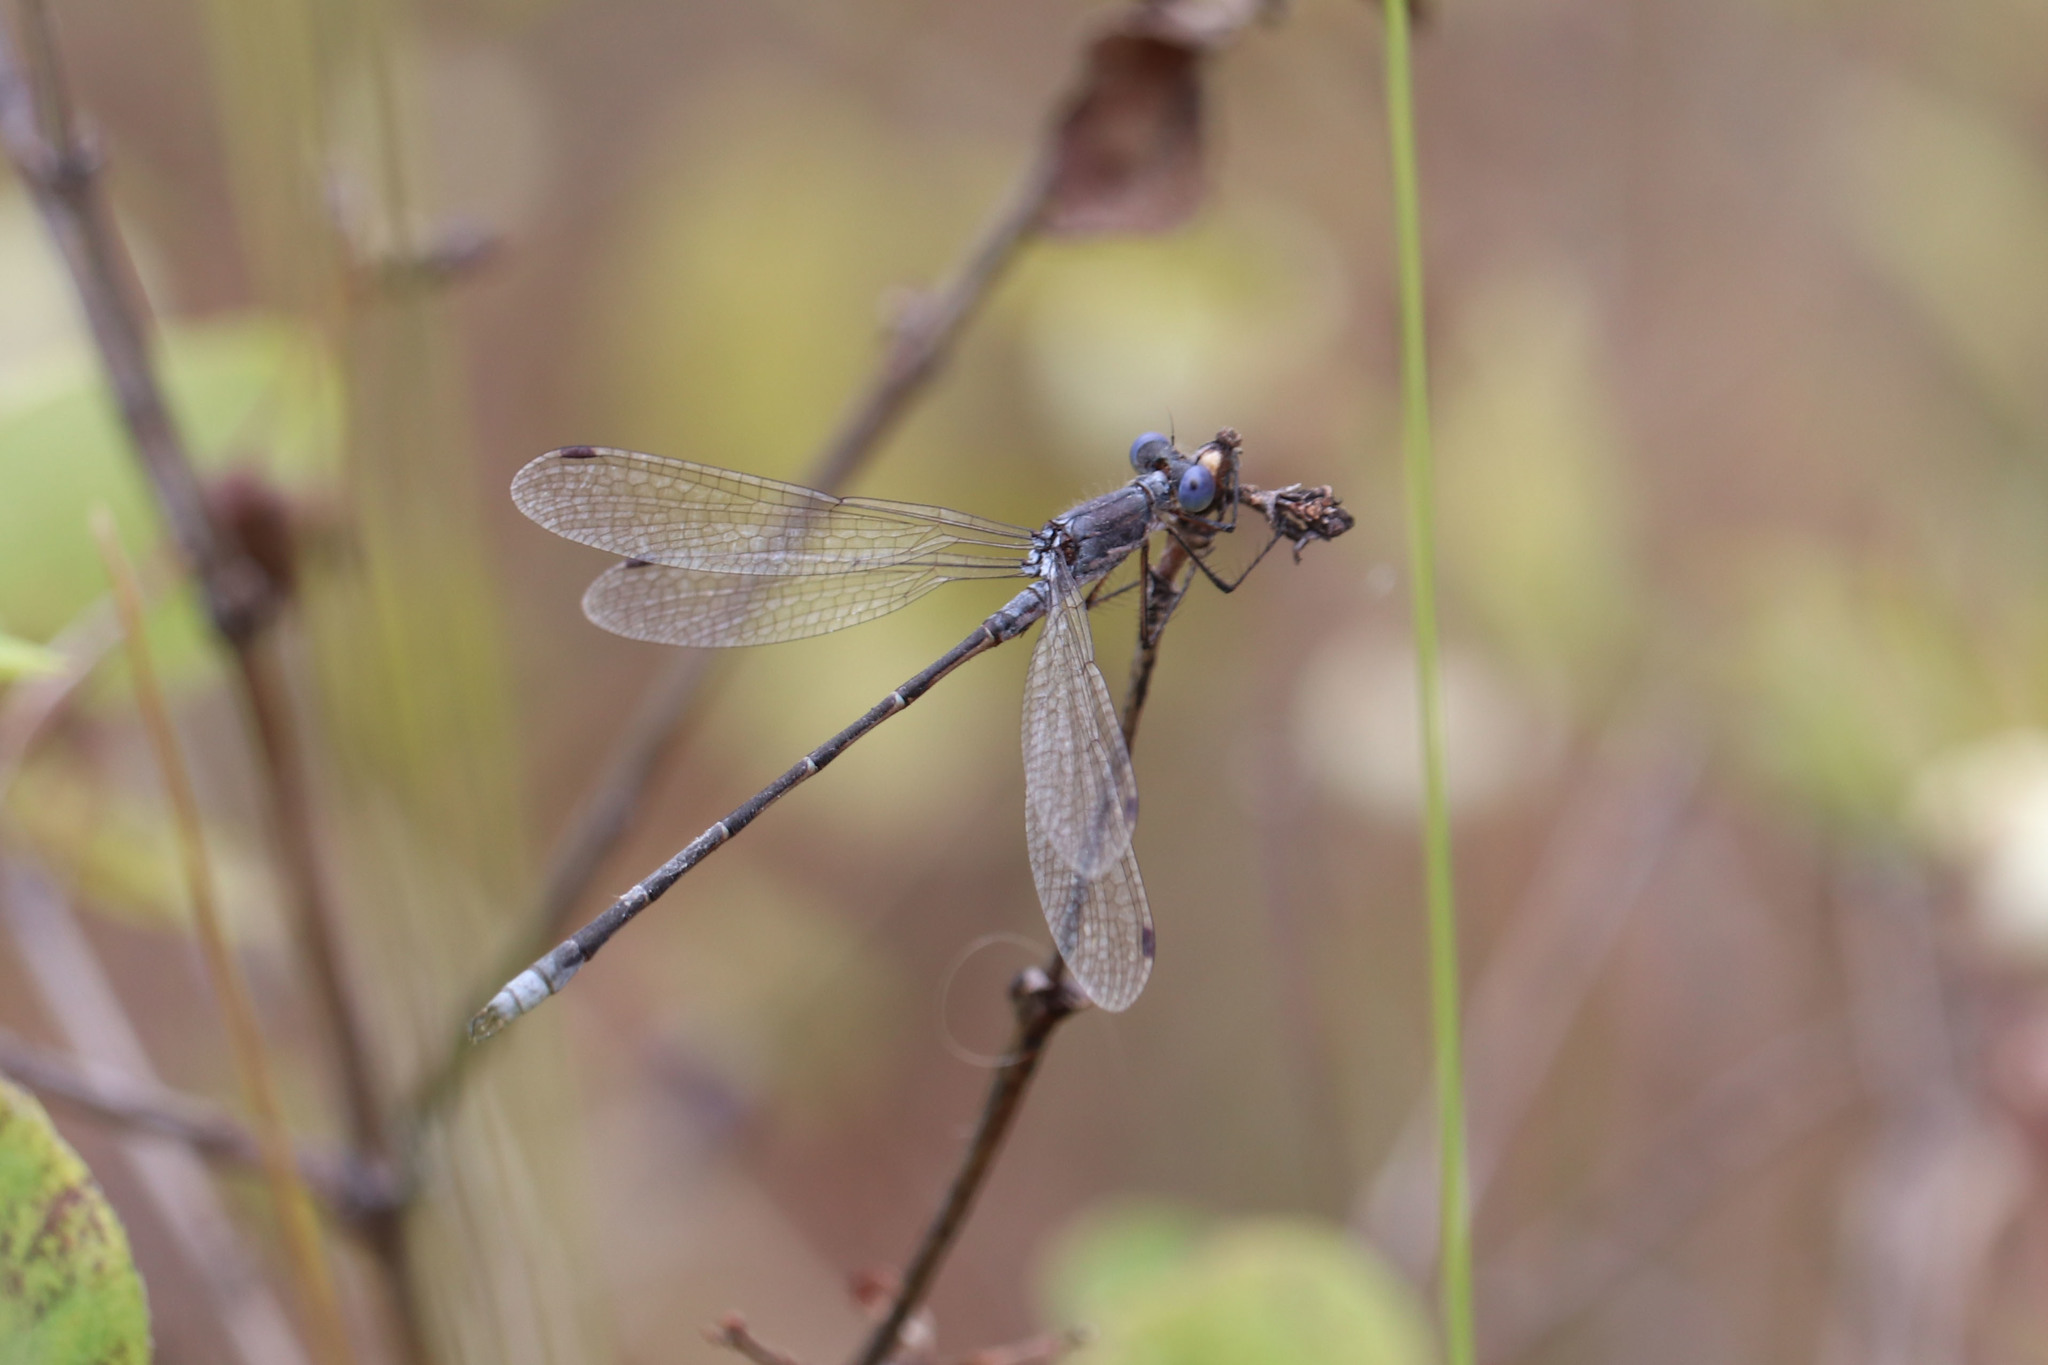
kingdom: Animalia
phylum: Arthropoda
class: Insecta
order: Odonata
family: Lestidae
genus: Lestes
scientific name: Lestes congener
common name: Spotted spreadwing
